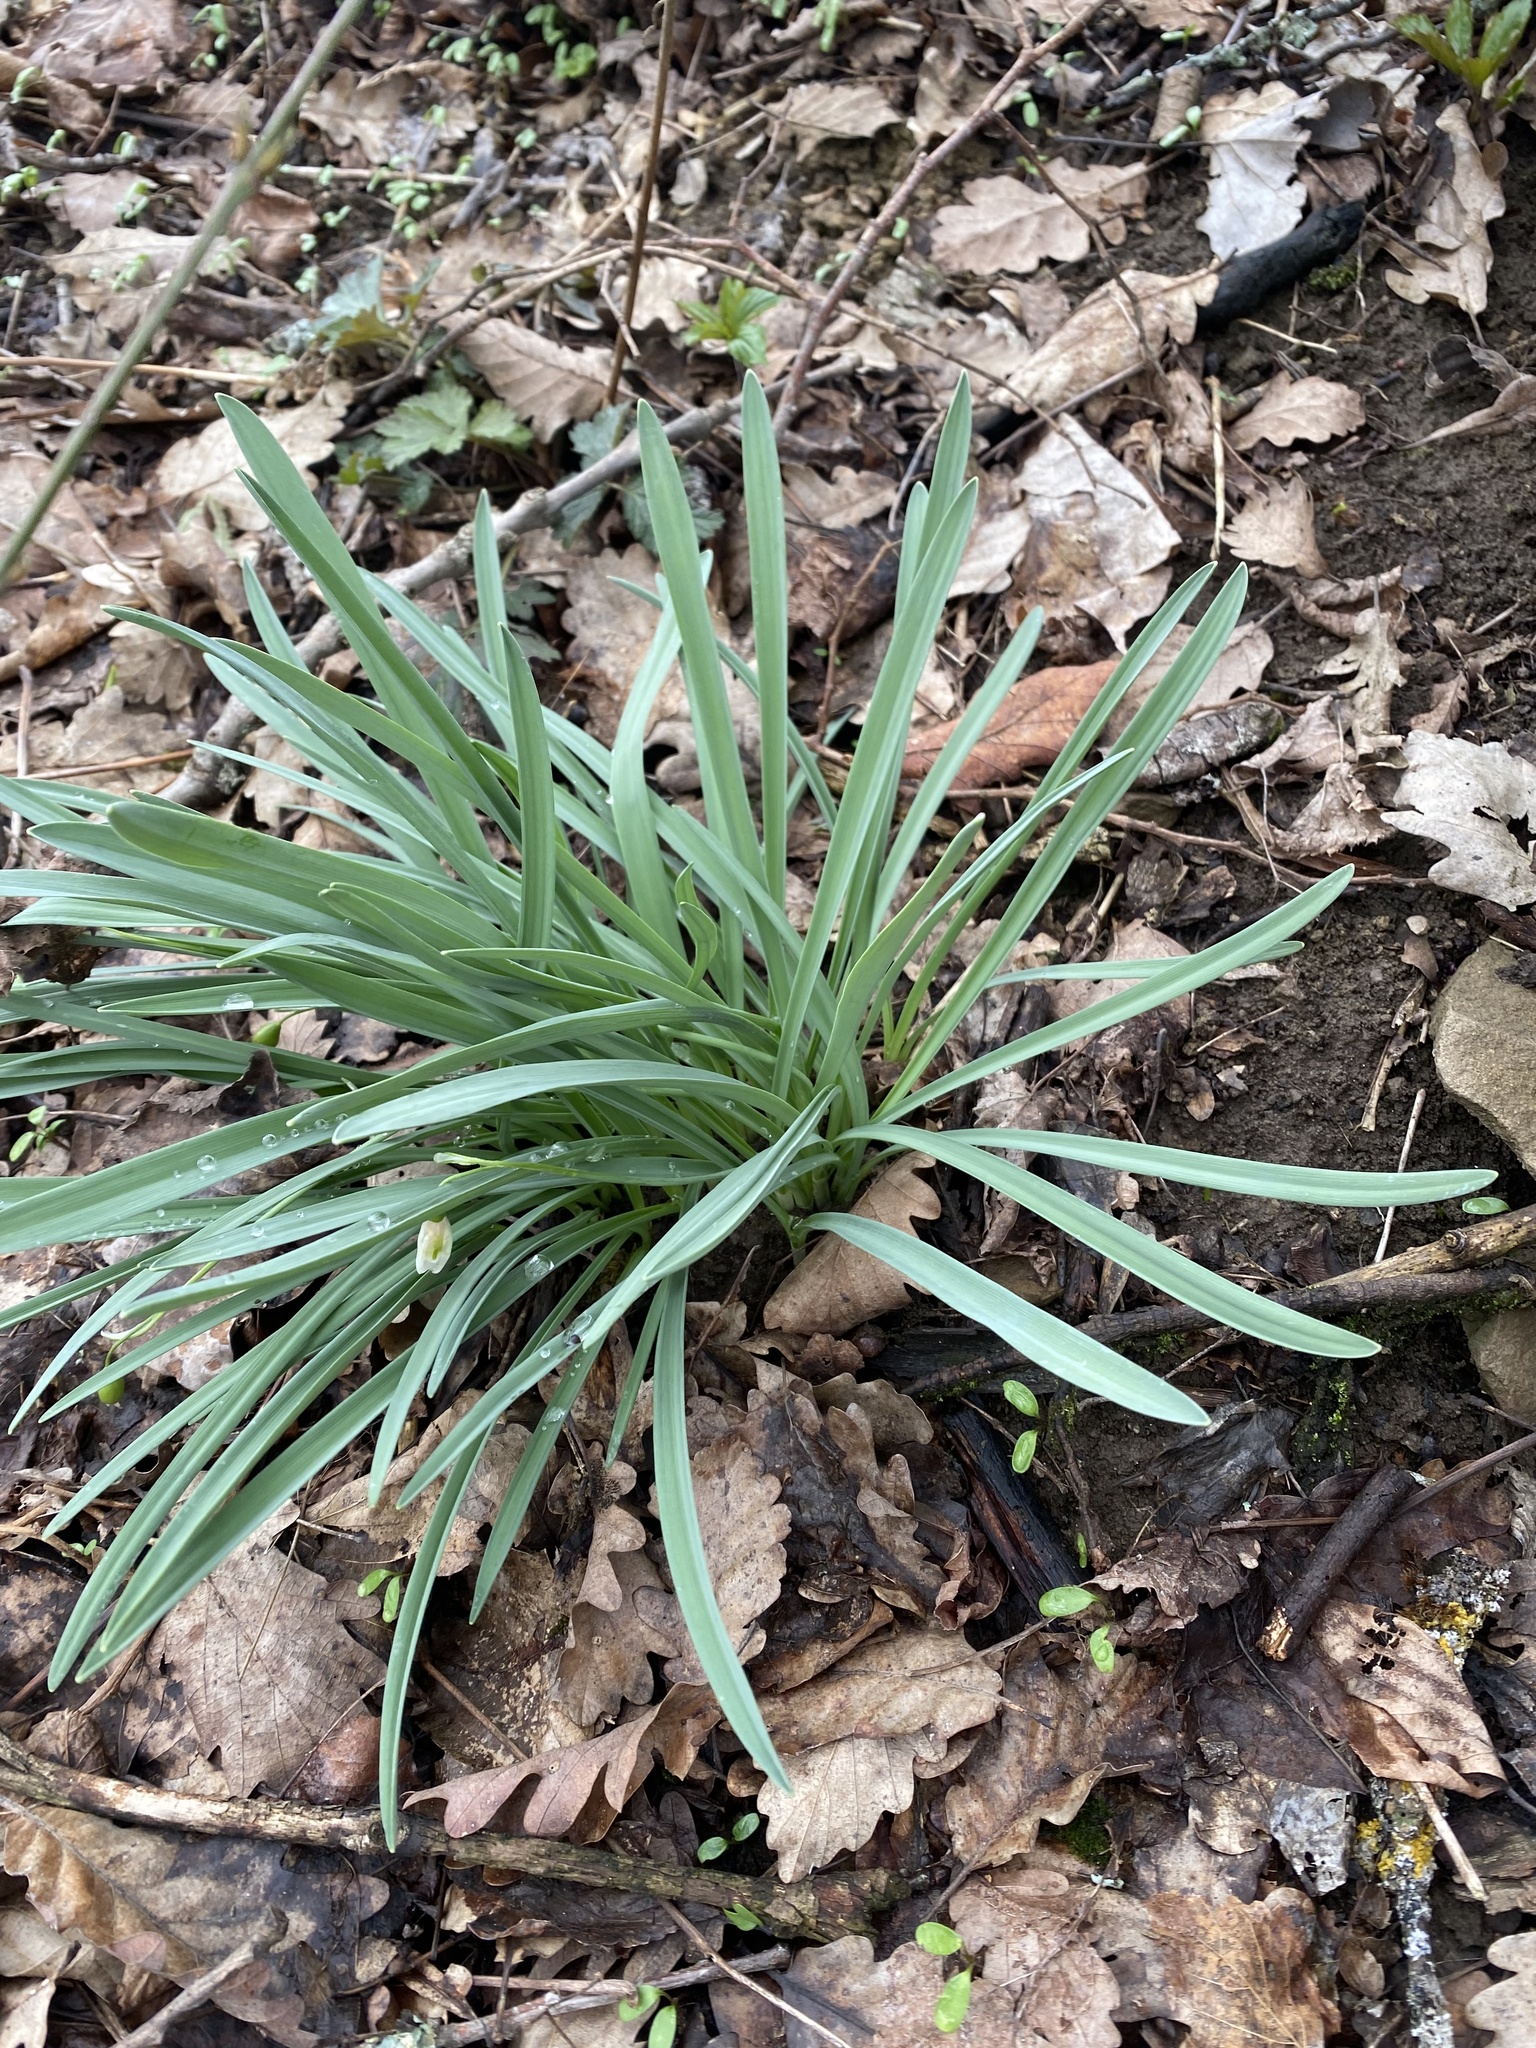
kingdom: Plantae
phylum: Tracheophyta
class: Liliopsida
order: Asparagales
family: Amaryllidaceae
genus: Galanthus
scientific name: Galanthus alpinus
